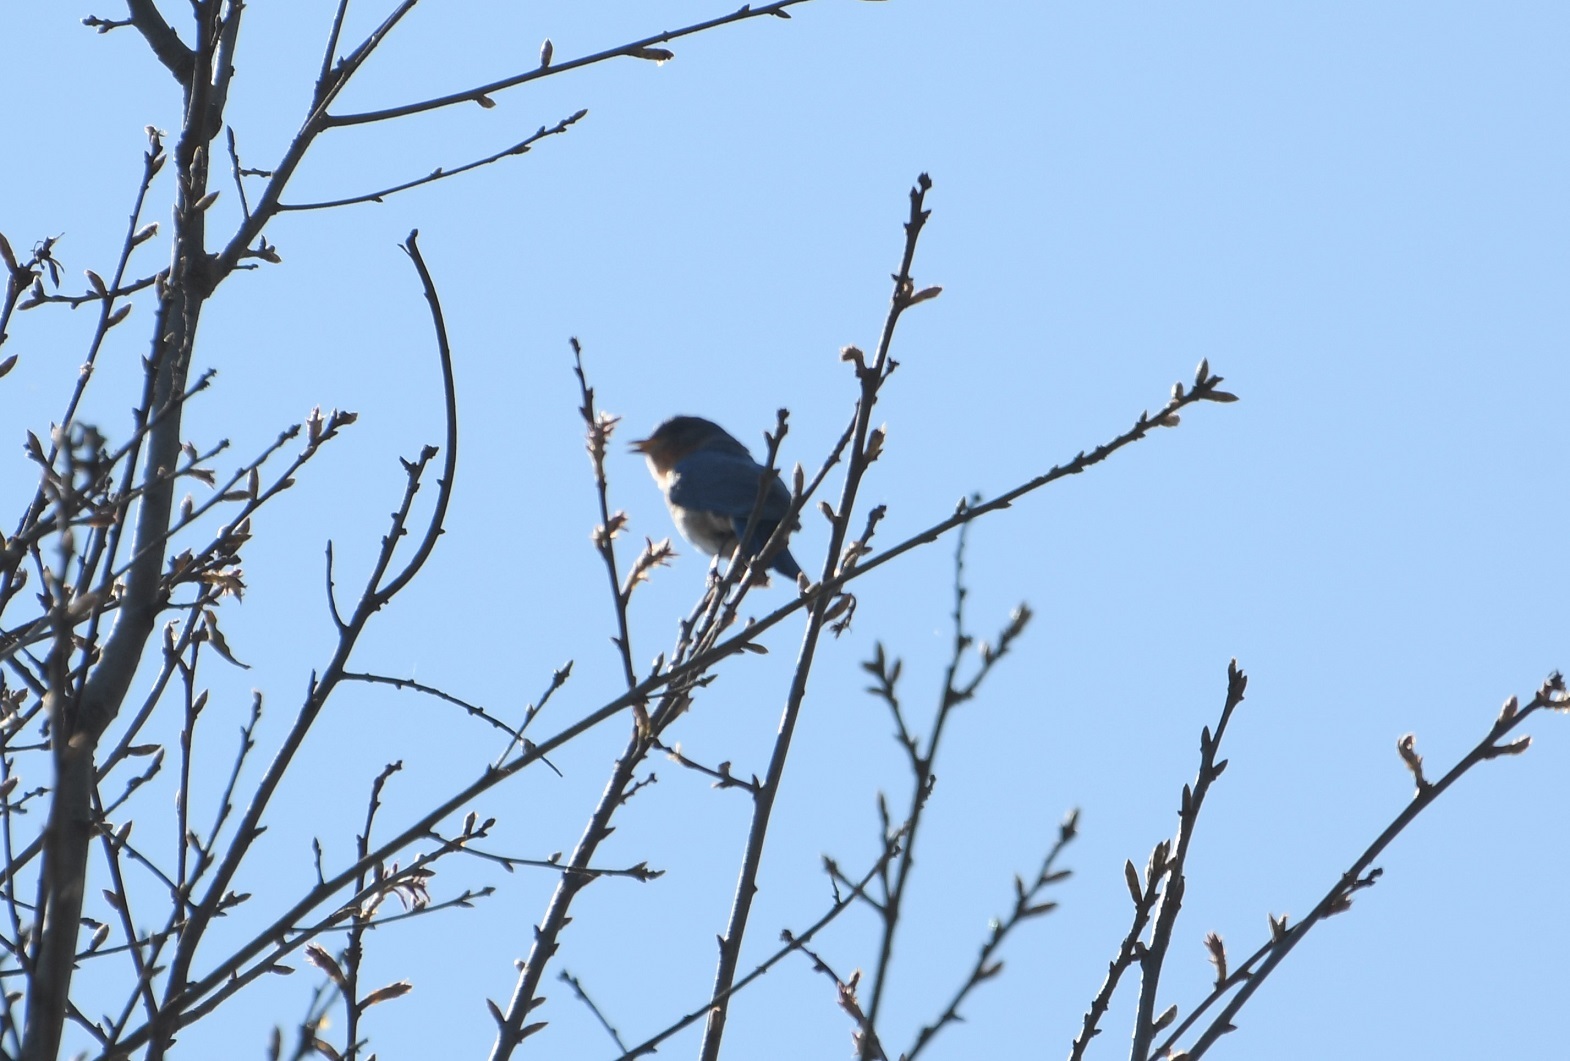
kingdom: Animalia
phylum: Chordata
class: Aves
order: Passeriformes
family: Turdidae
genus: Sialia
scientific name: Sialia sialis
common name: Eastern bluebird
